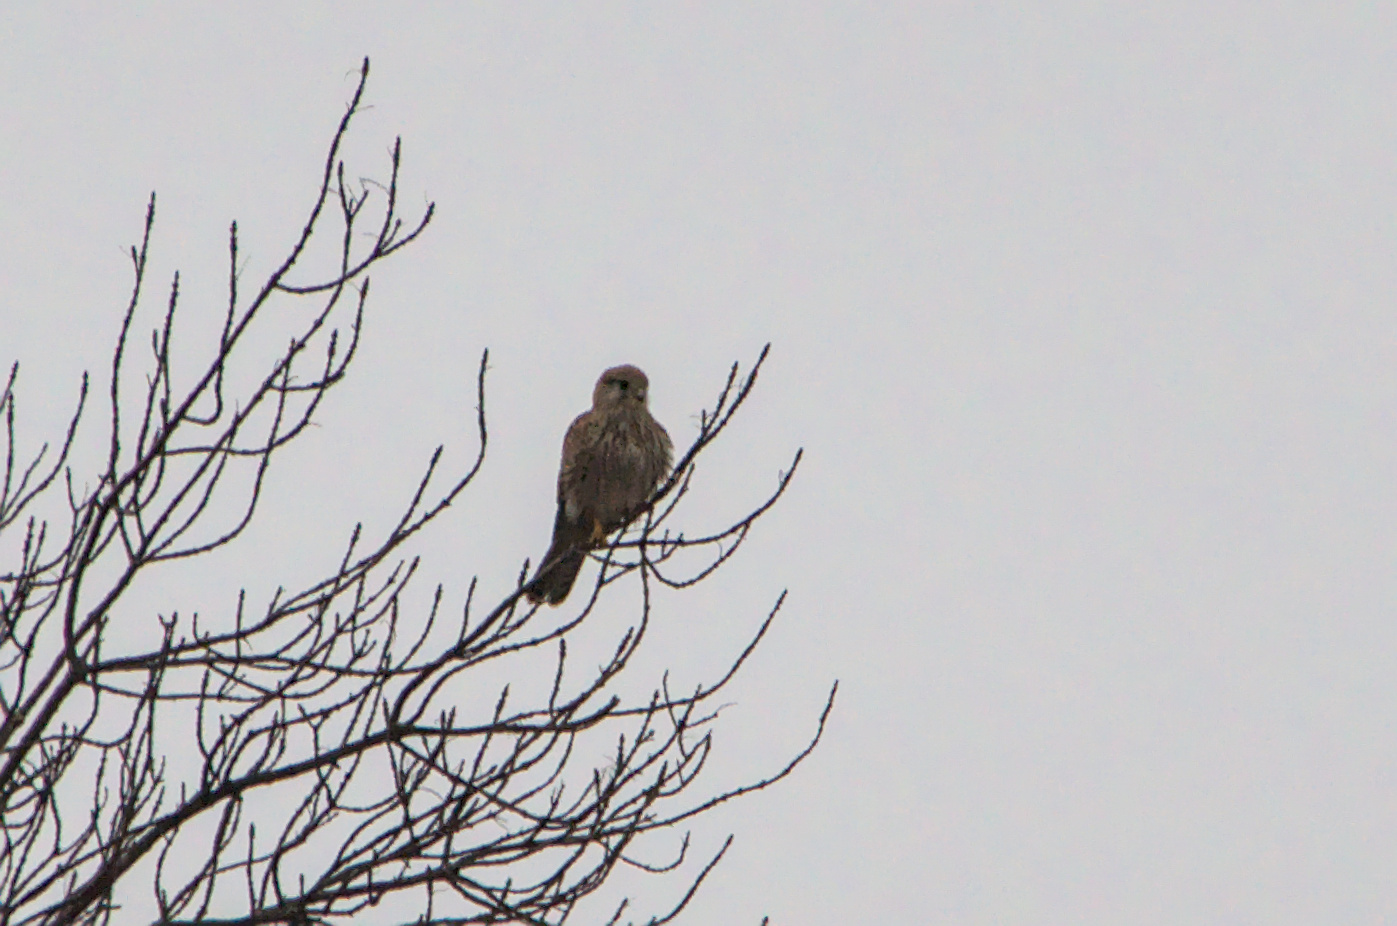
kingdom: Animalia
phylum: Chordata
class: Aves
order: Falconiformes
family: Falconidae
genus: Falco
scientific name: Falco tinnunculus
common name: Common kestrel
